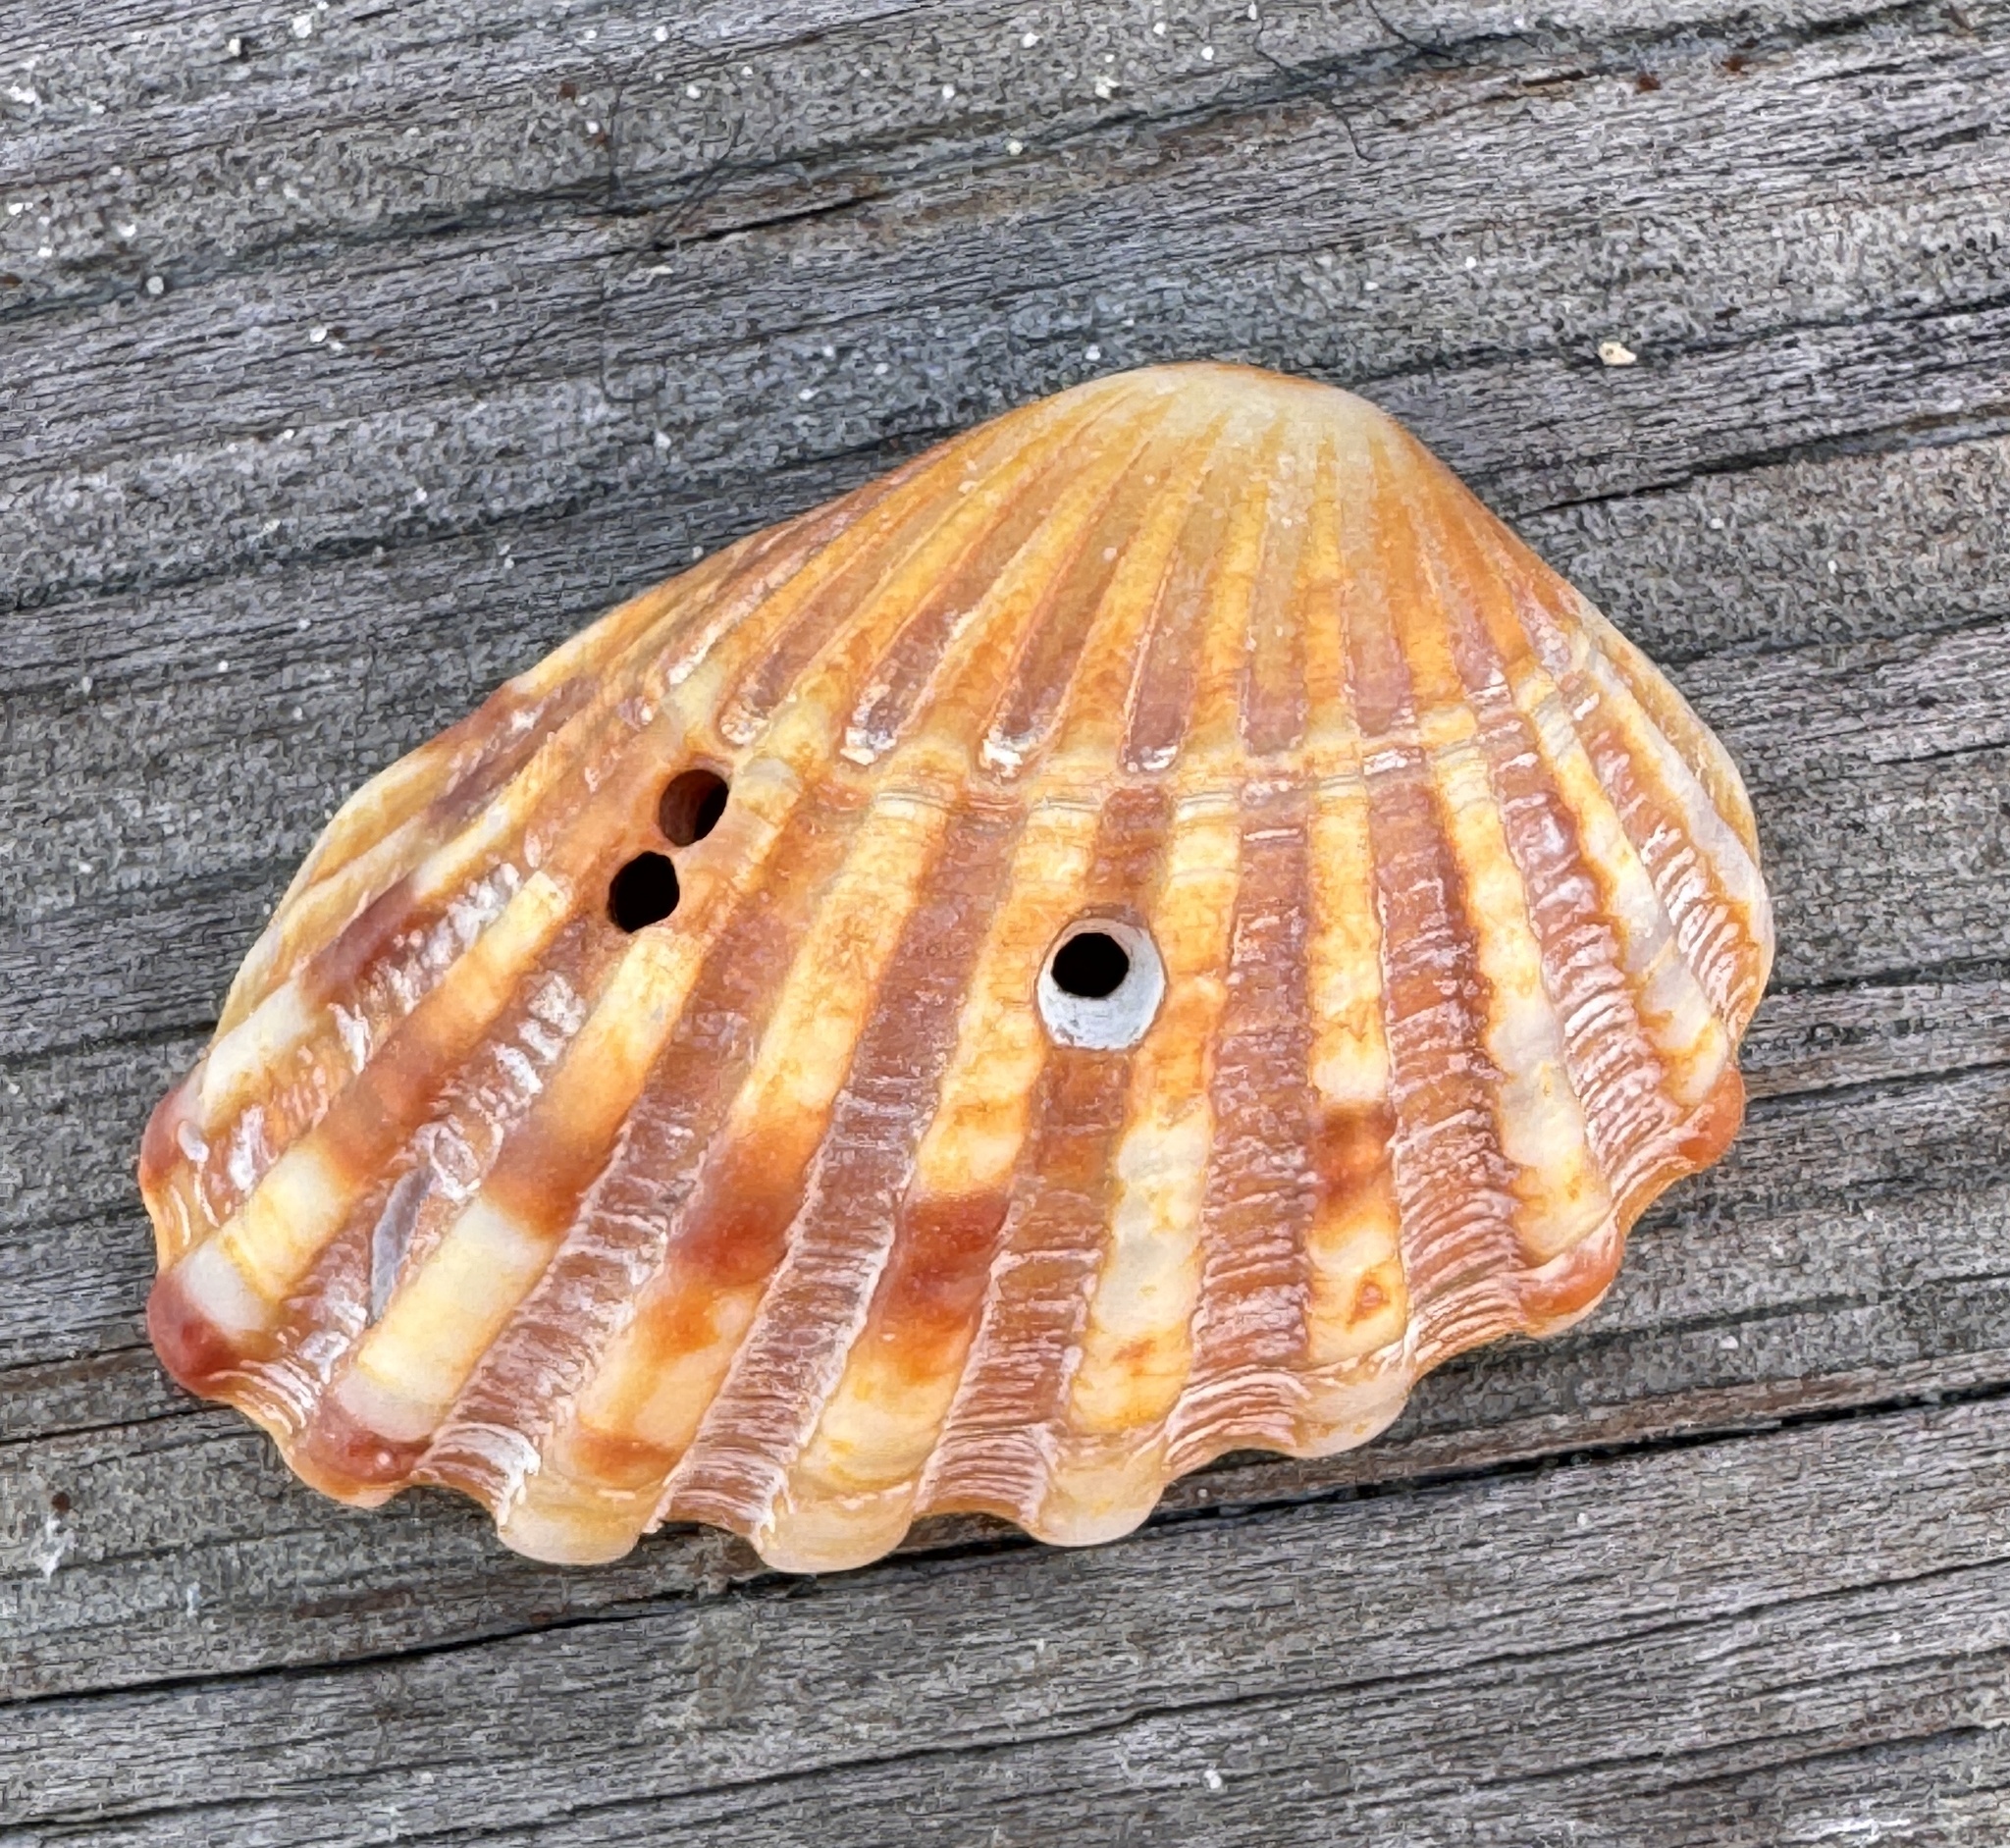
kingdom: Animalia
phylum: Mollusca
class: Bivalvia
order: Carditida
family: Carditidae
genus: Cardites
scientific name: Cardites floridanus
